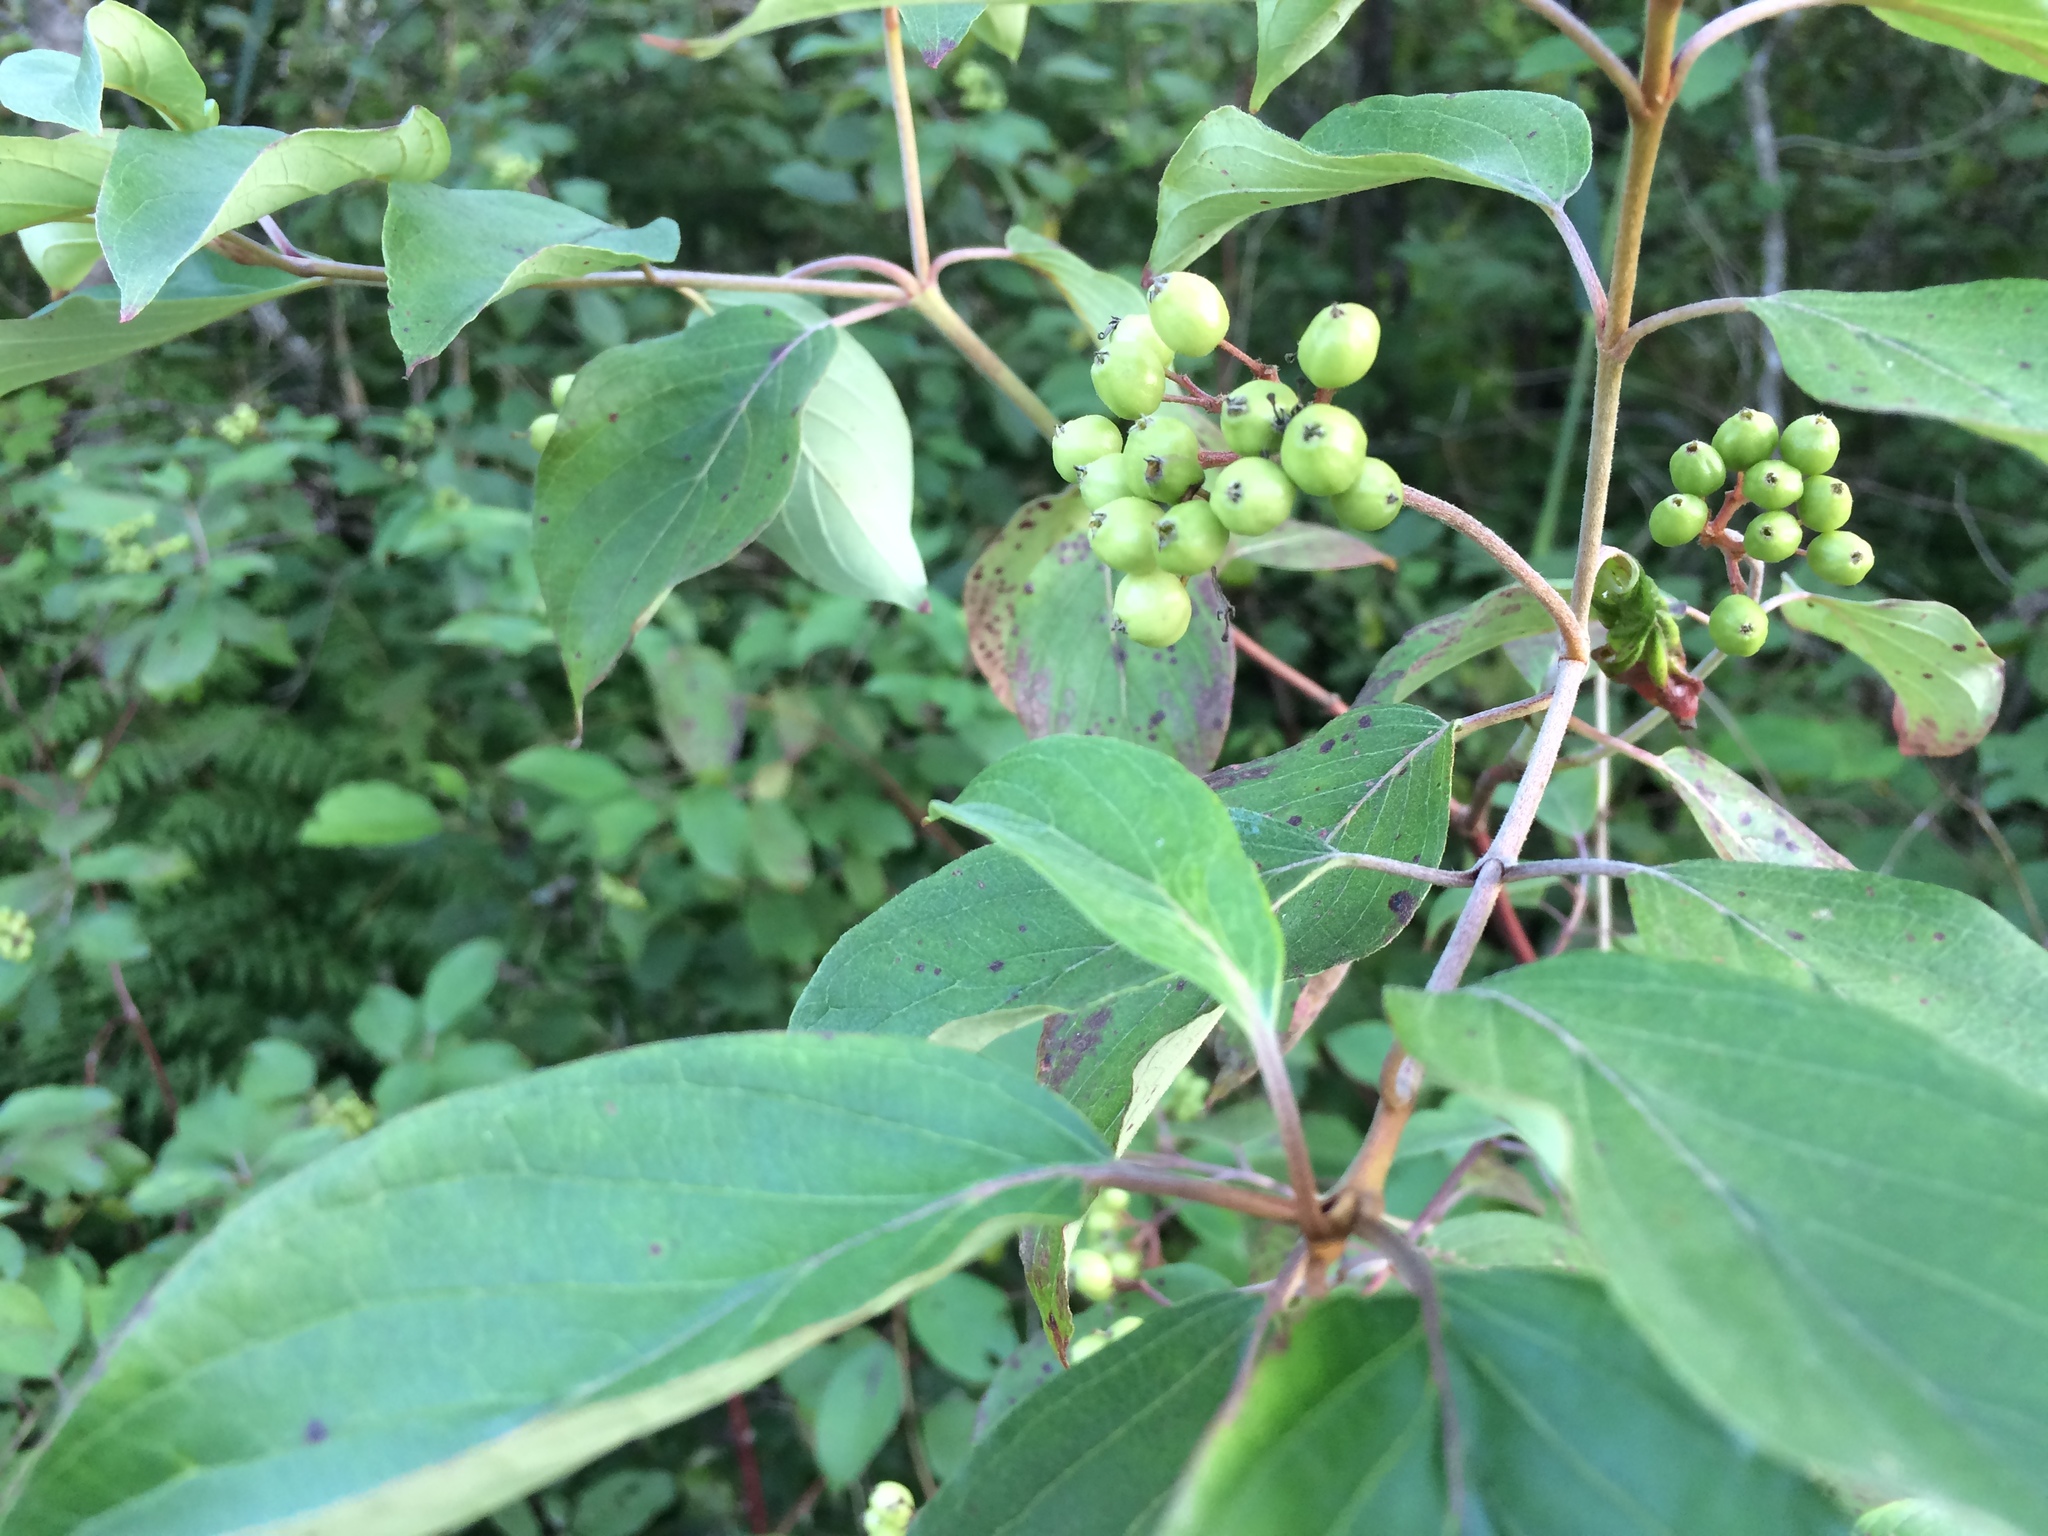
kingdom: Plantae
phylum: Tracheophyta
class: Magnoliopsida
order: Cornales
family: Cornaceae
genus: Cornus
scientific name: Cornus amomum
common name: Silky dogwood
